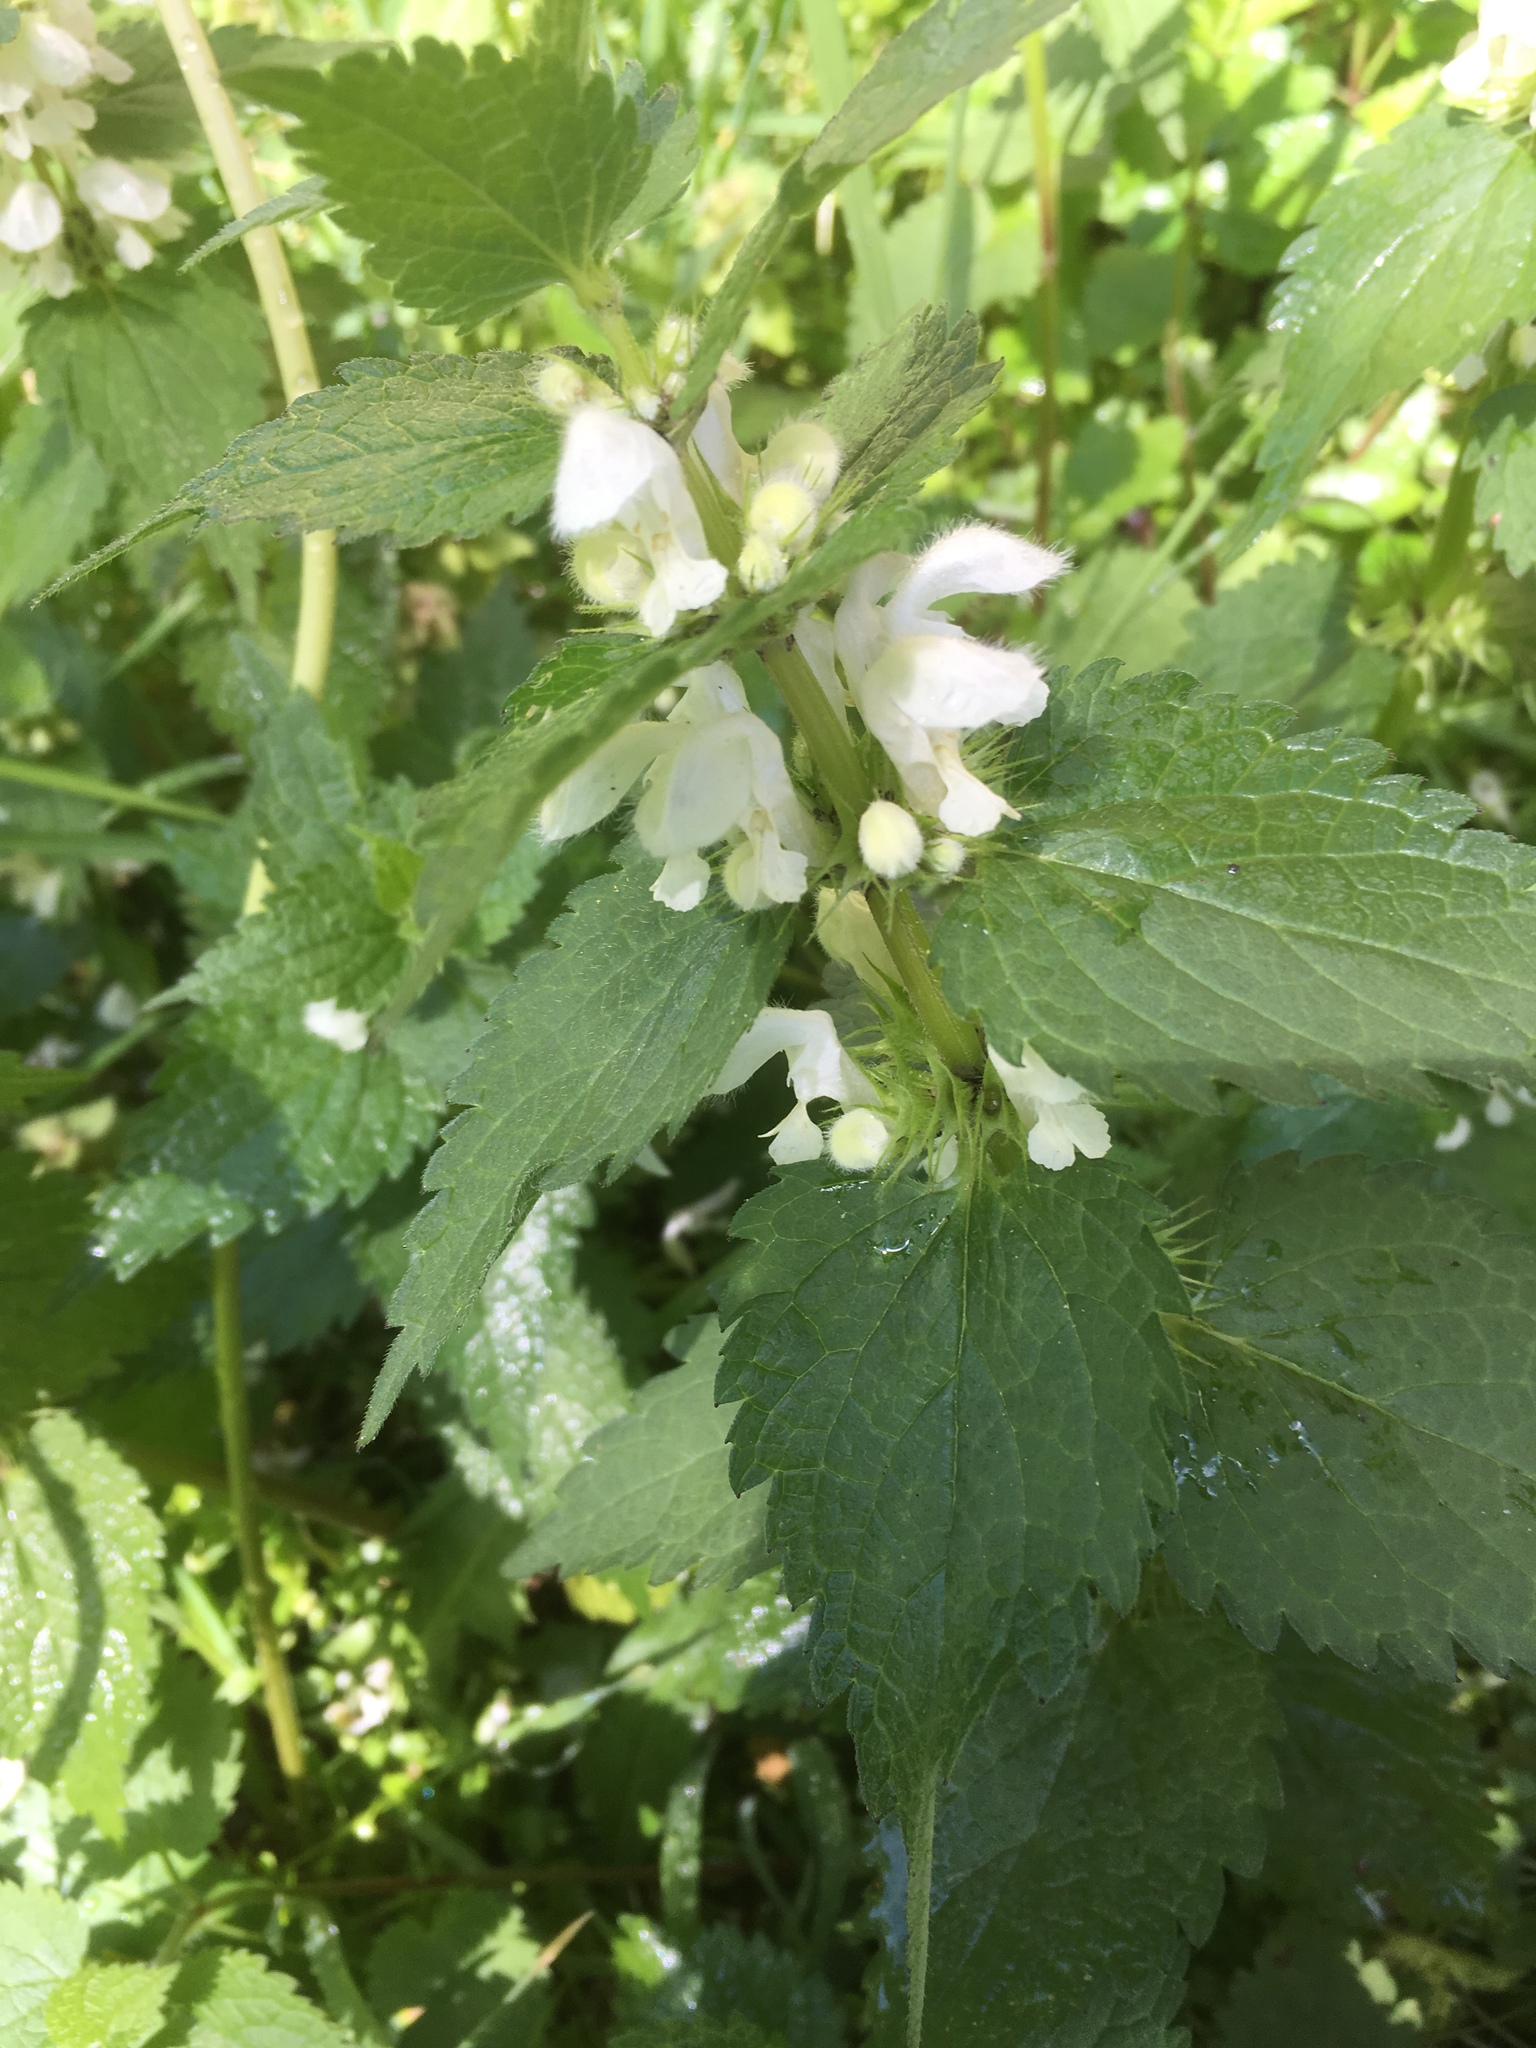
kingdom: Plantae
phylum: Tracheophyta
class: Magnoliopsida
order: Lamiales
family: Lamiaceae
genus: Lamium
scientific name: Lamium album
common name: White dead-nettle
